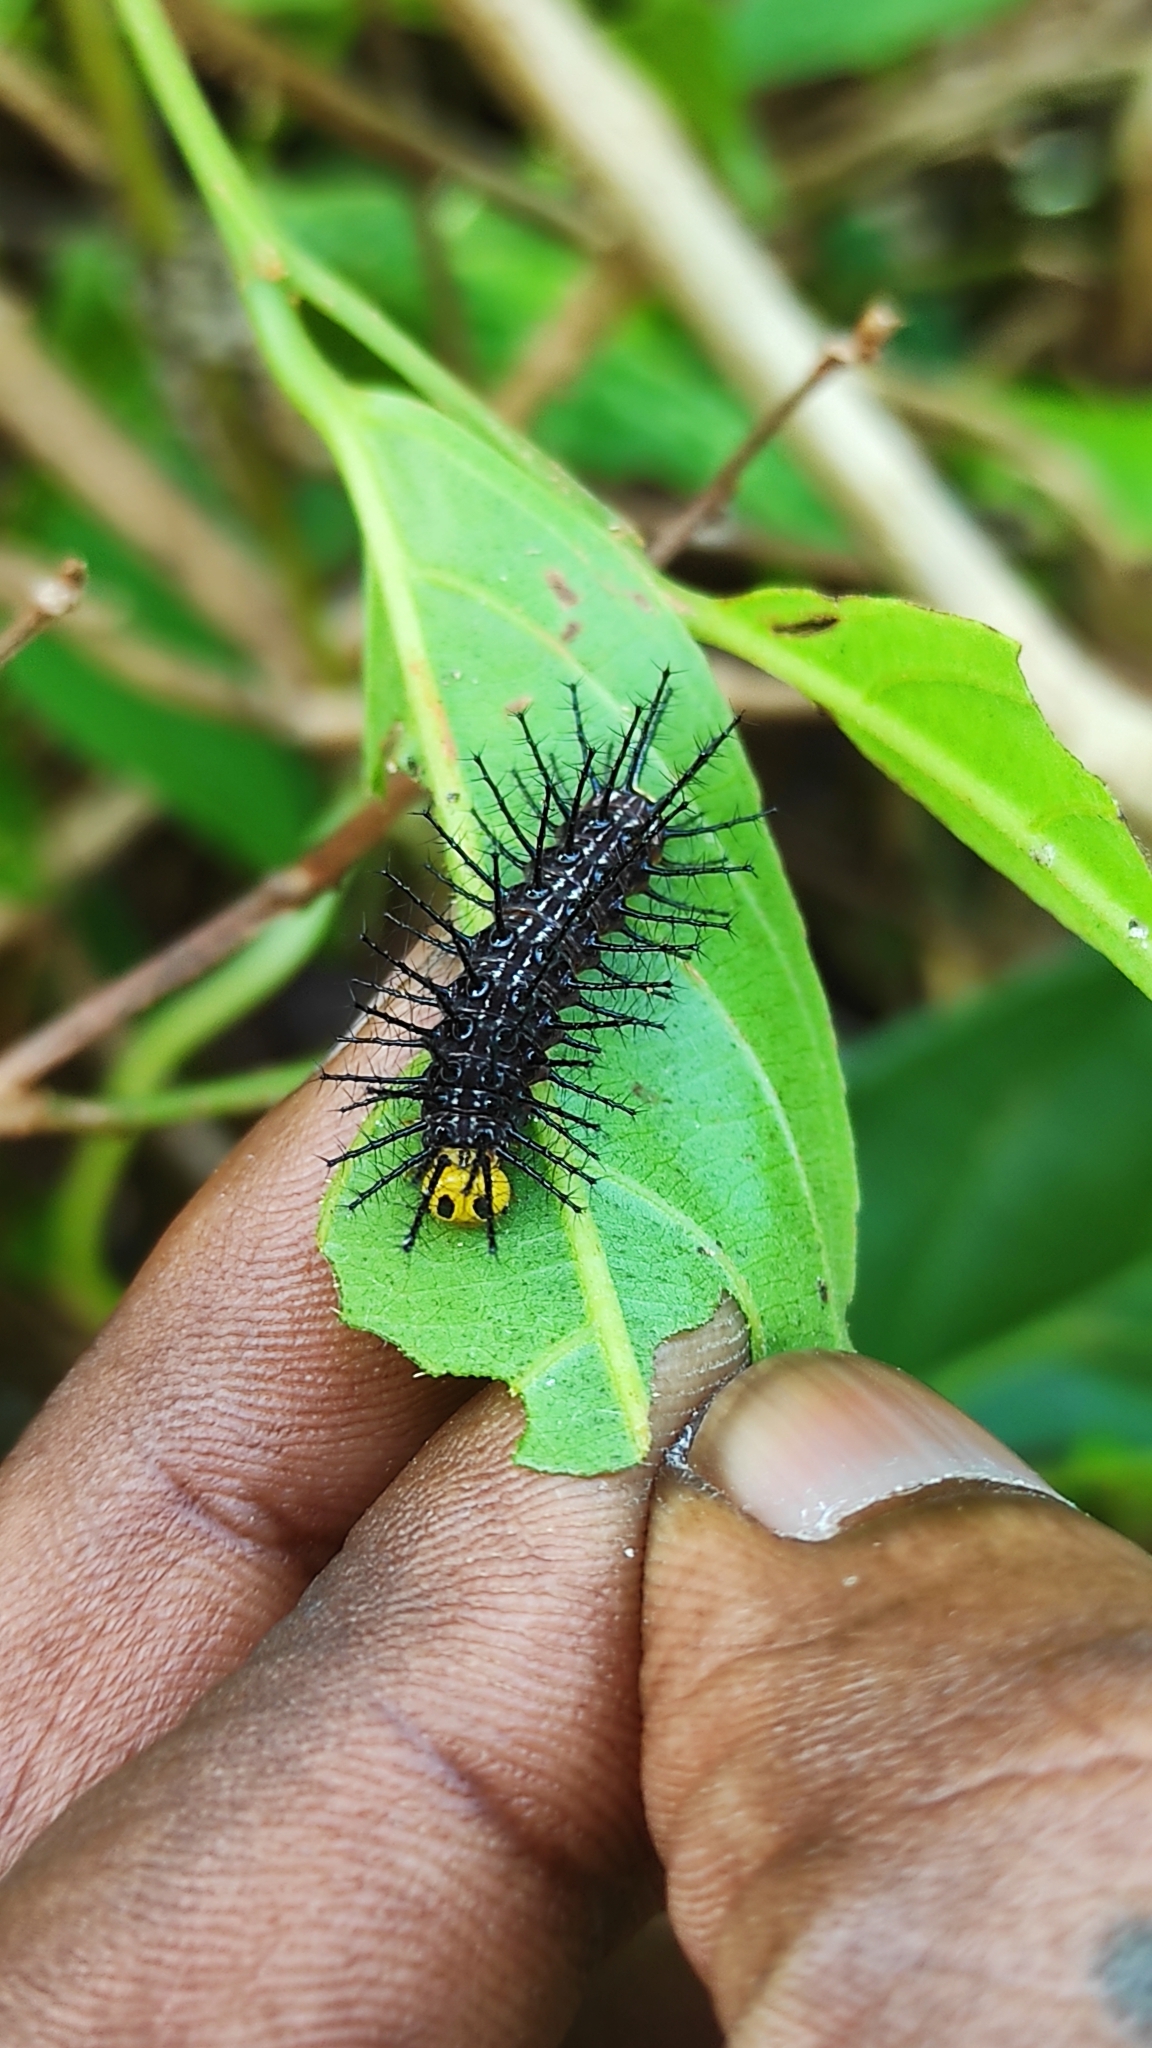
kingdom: Animalia
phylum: Arthropoda
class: Insecta
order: Lepidoptera
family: Nymphalidae
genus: Cirrochroa
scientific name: Cirrochroa thais
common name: Tamil yeoman
